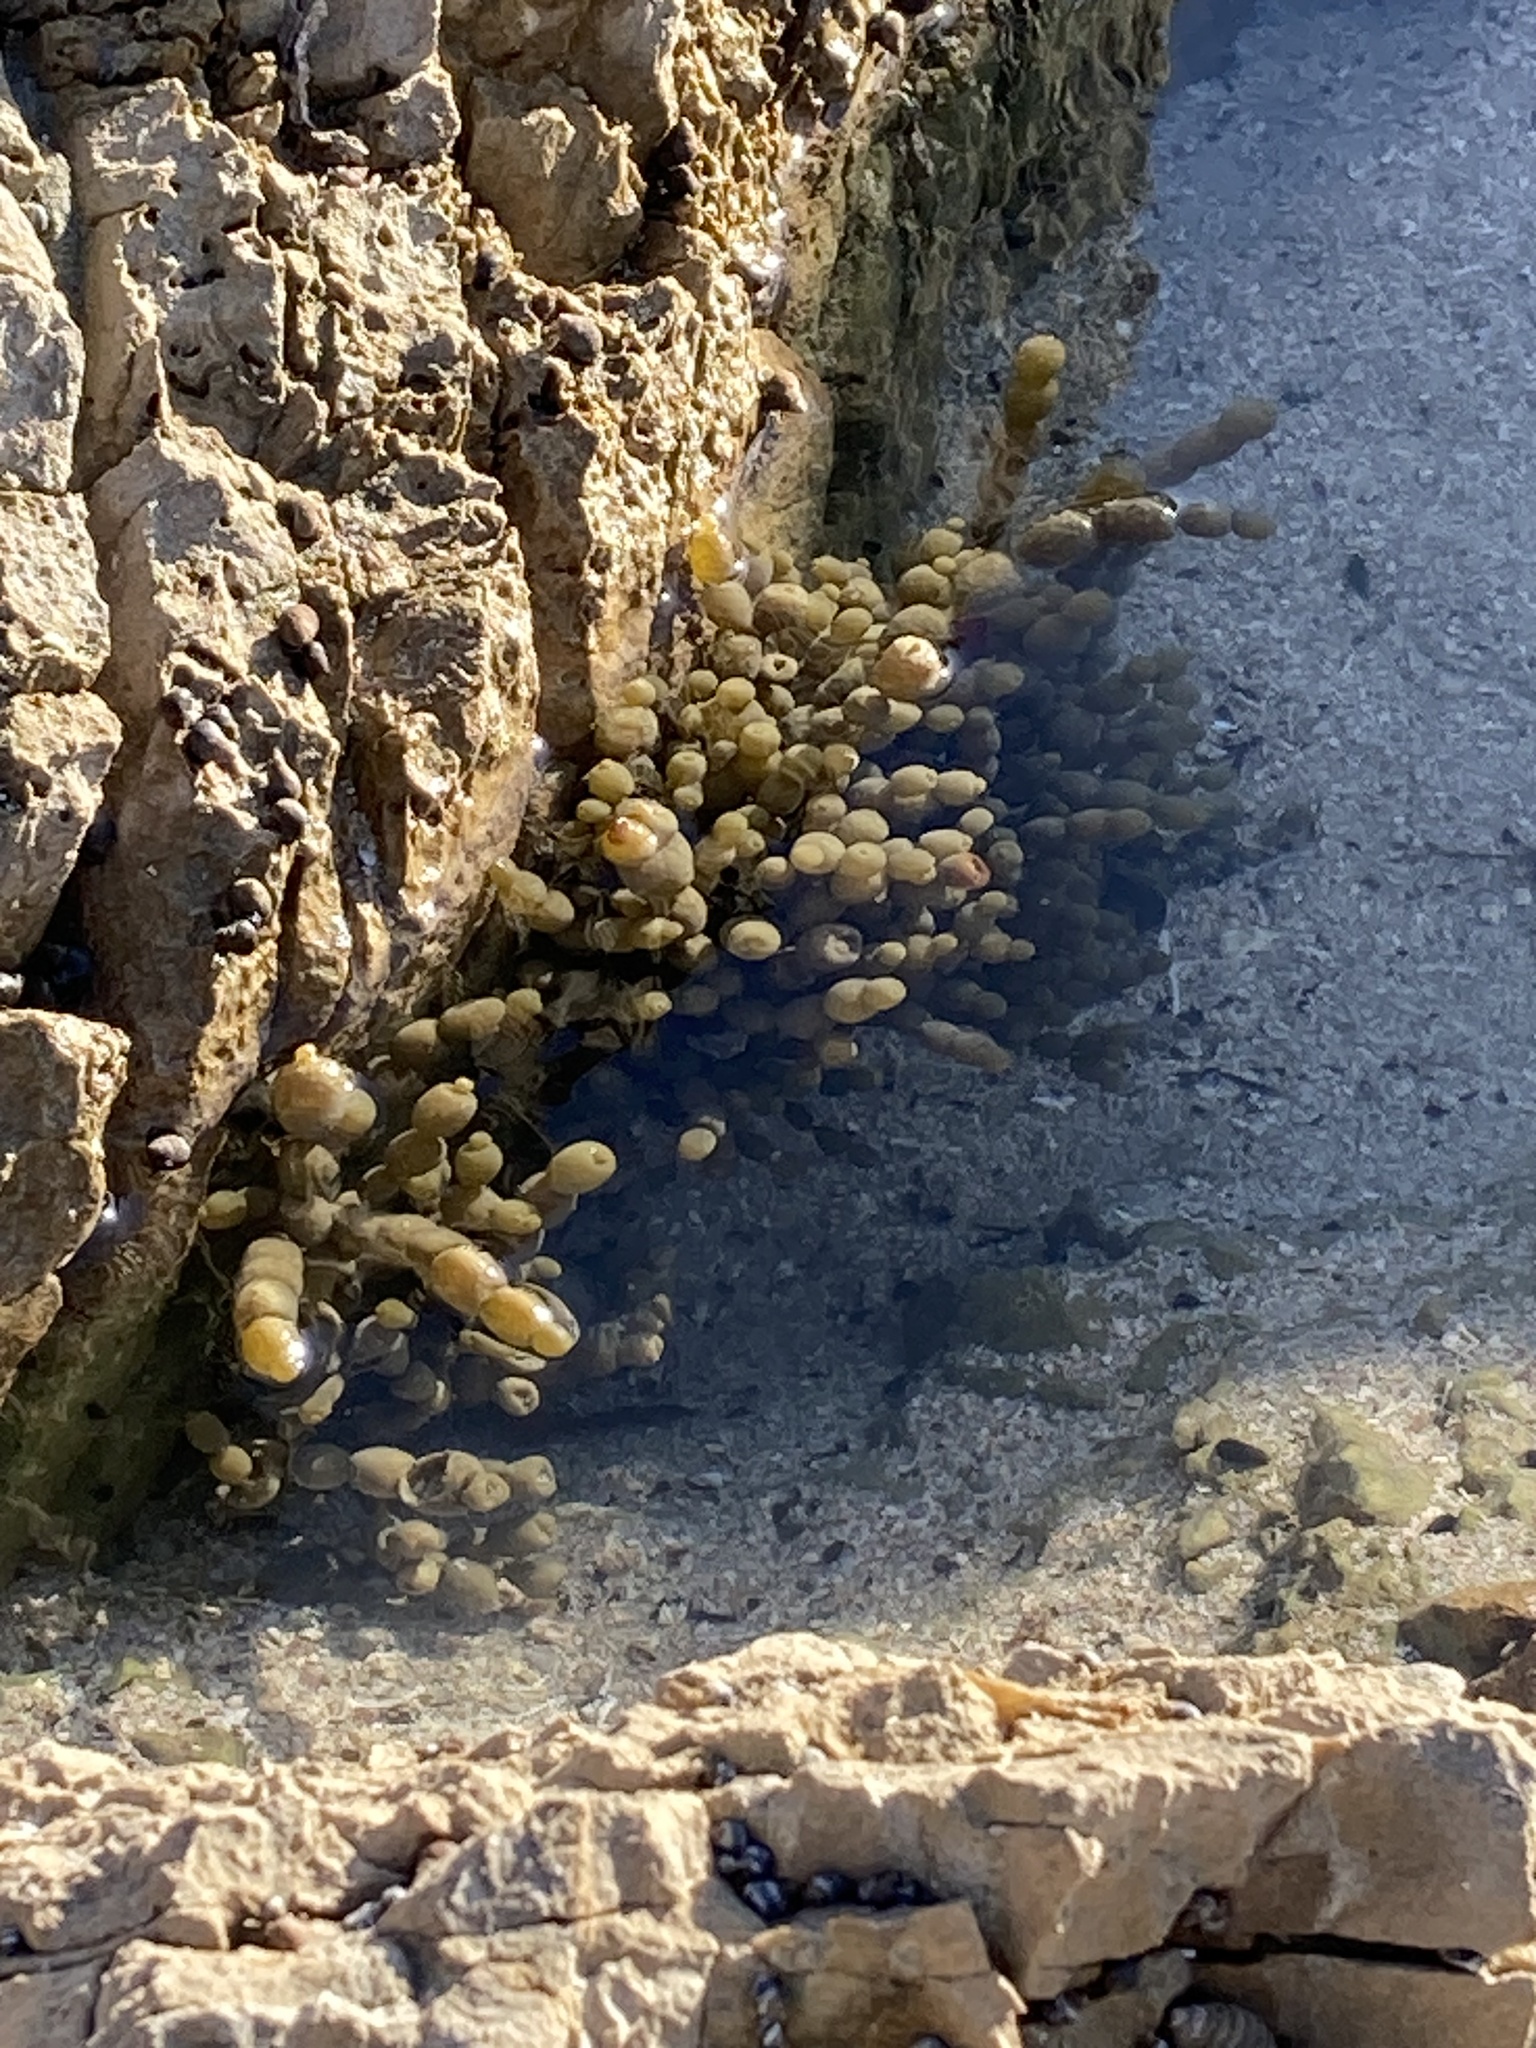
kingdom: Chromista
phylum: Ochrophyta
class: Phaeophyceae
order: Fucales
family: Hormosiraceae
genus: Hormosira
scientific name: Hormosira banksii
